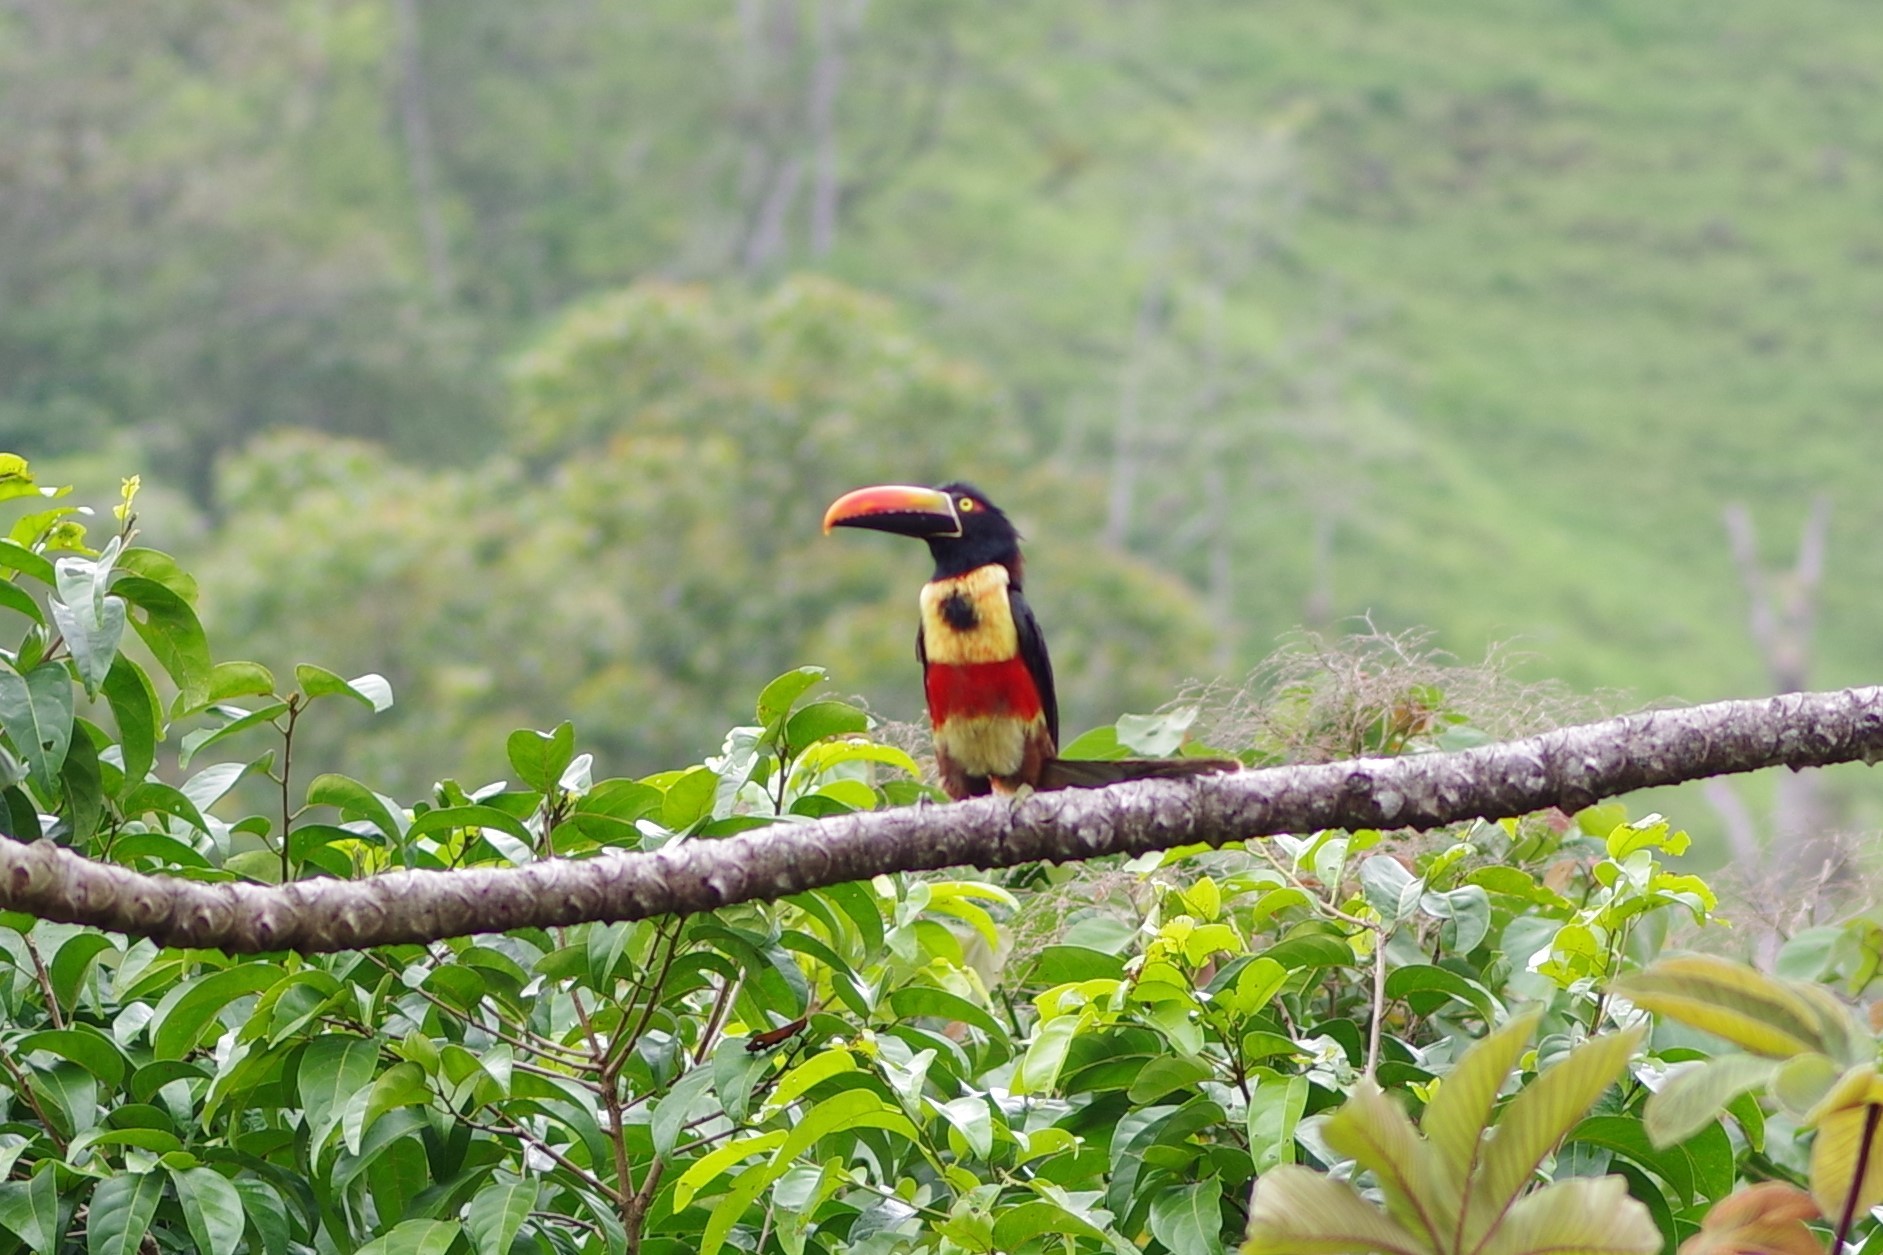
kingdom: Animalia
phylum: Chordata
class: Aves
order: Piciformes
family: Ramphastidae
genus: Pteroglossus
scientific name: Pteroglossus frantzii
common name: Fiery-billed aracari
